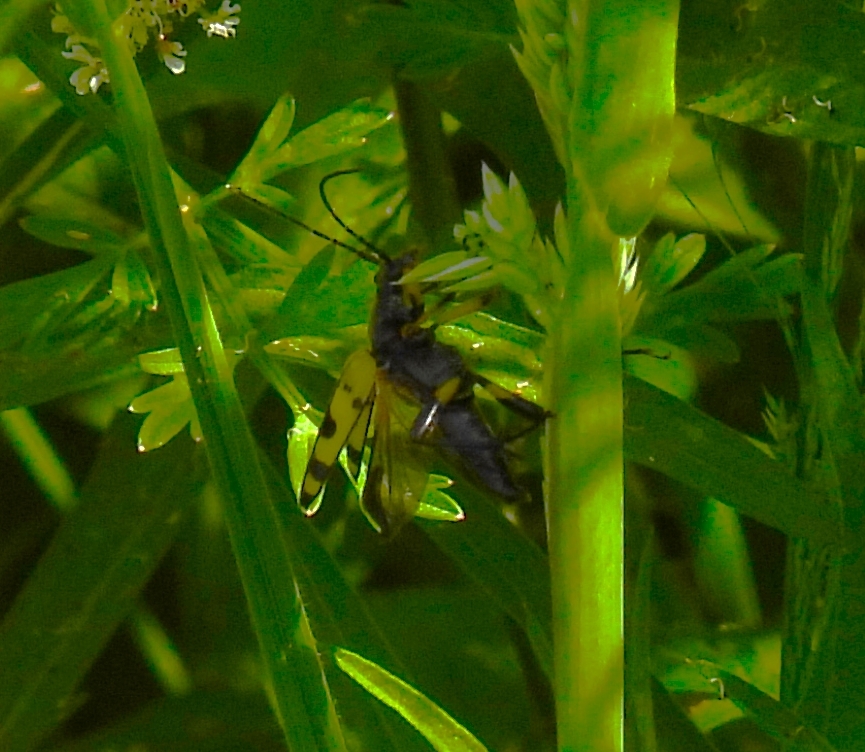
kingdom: Animalia
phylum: Arthropoda
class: Insecta
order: Coleoptera
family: Cerambycidae
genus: Rutpela
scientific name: Rutpela maculata
